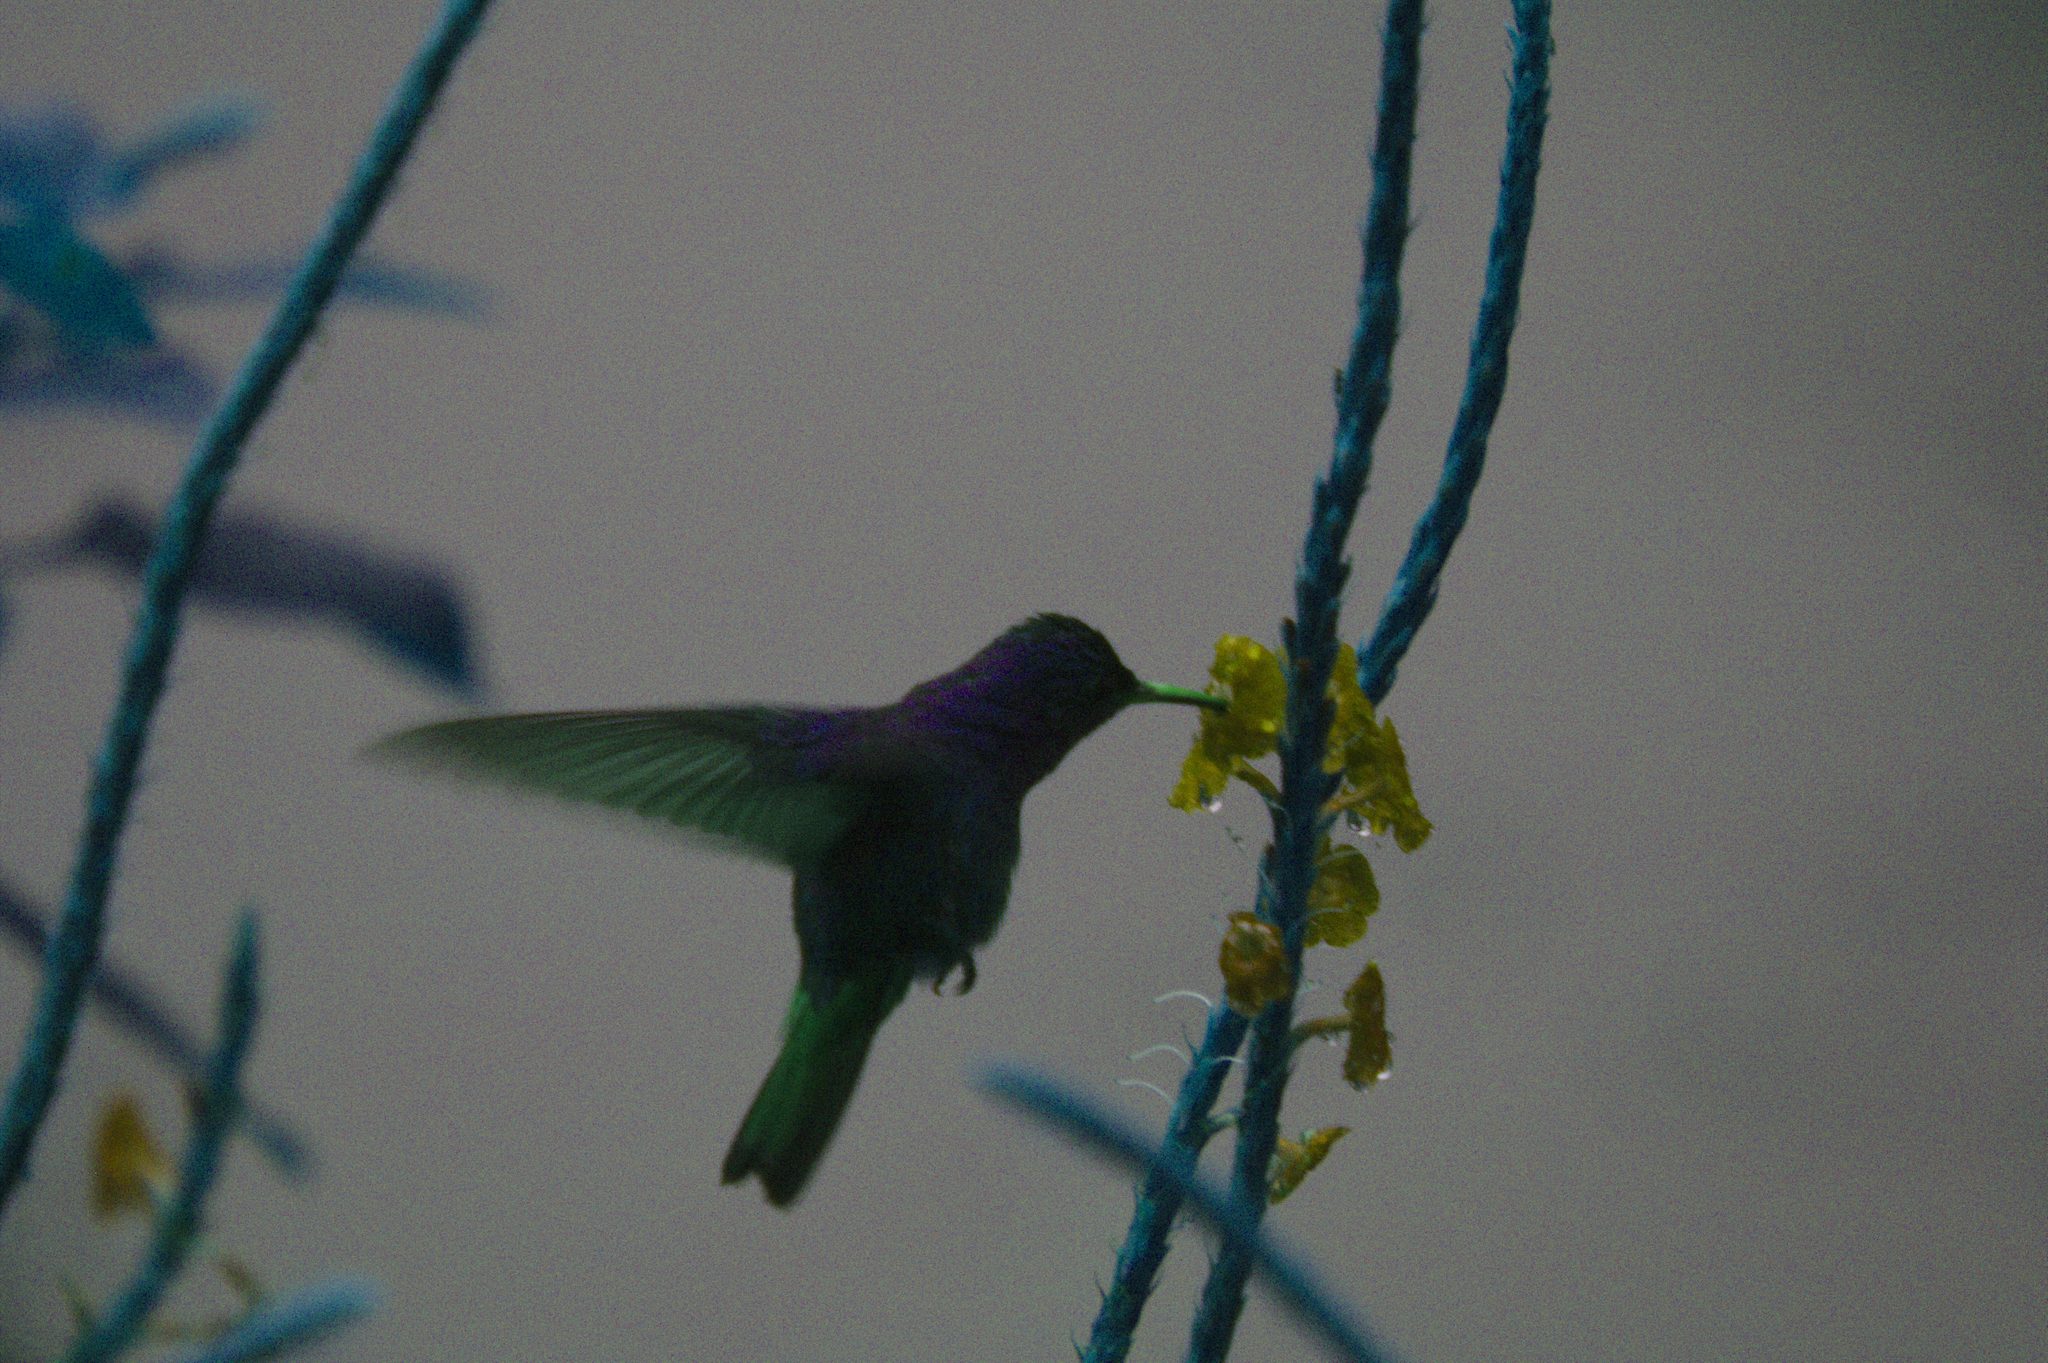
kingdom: Animalia
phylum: Chordata
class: Aves
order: Apodiformes
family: Trochilidae
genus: Amazilia
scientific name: Amazilia tzacatl
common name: Rufous-tailed hummingbird
